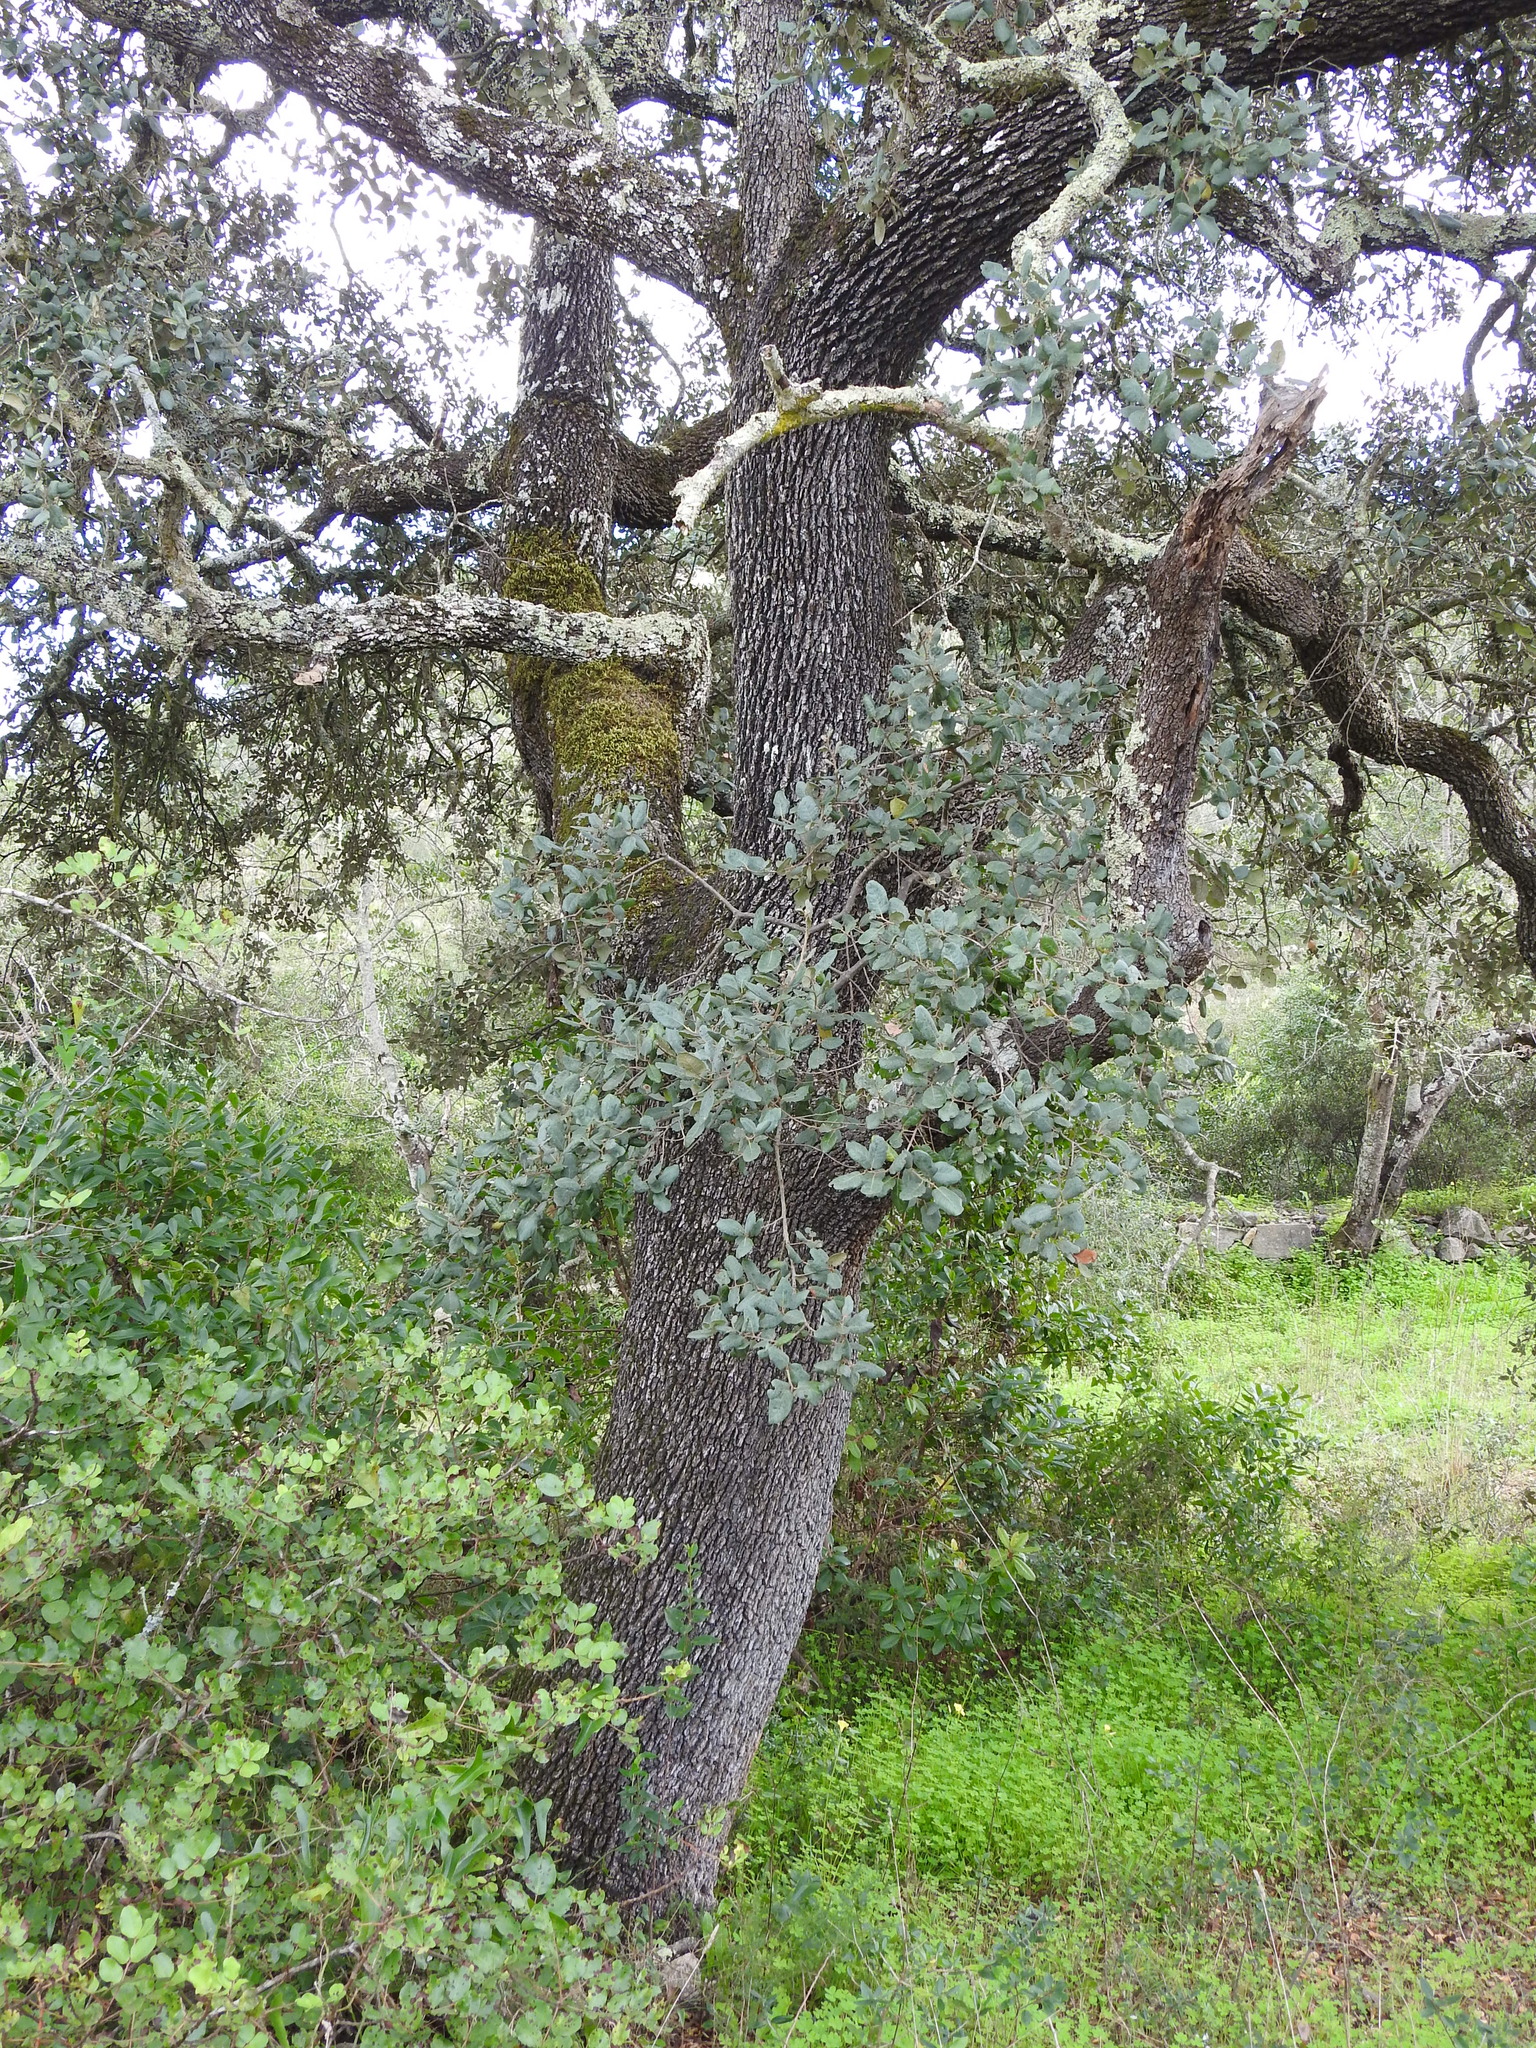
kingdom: Plantae
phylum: Tracheophyta
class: Magnoliopsida
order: Fagales
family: Fagaceae
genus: Quercus
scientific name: Quercus rotundifolia
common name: Holm oak
